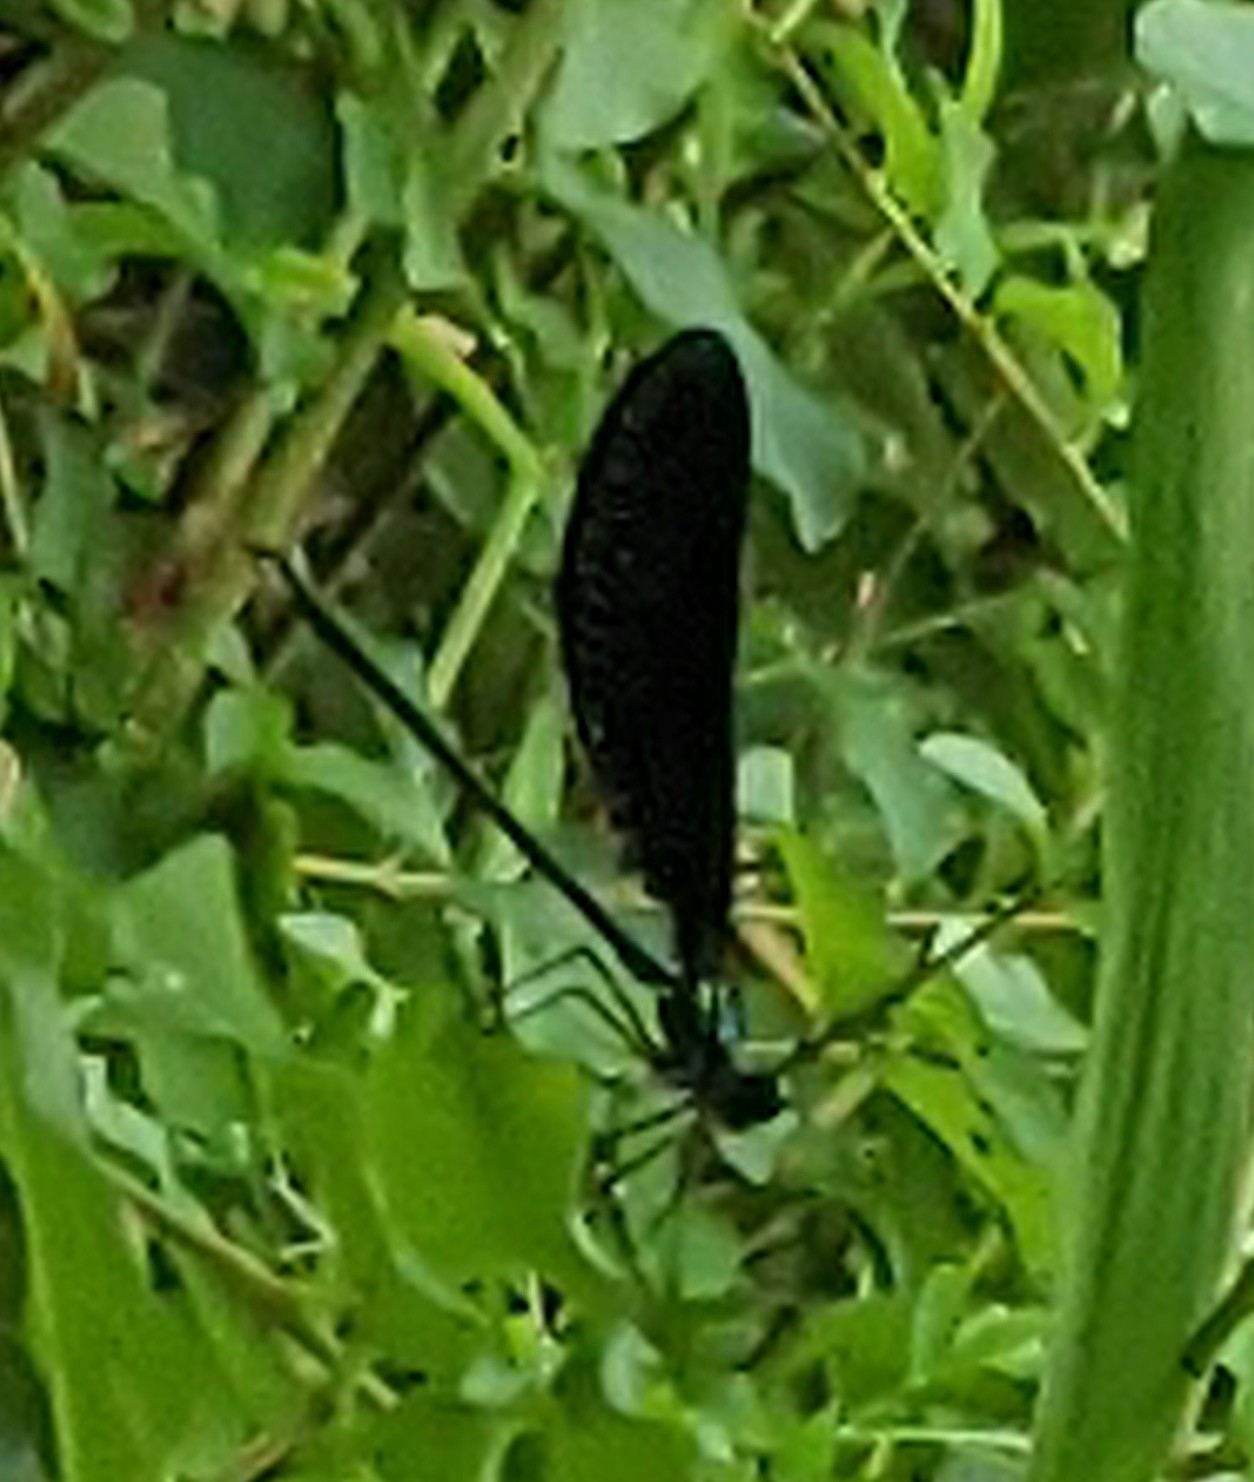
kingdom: Animalia
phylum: Arthropoda
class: Insecta
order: Odonata
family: Calopterygidae
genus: Calopteryx
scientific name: Calopteryx maculata
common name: Ebony jewelwing
